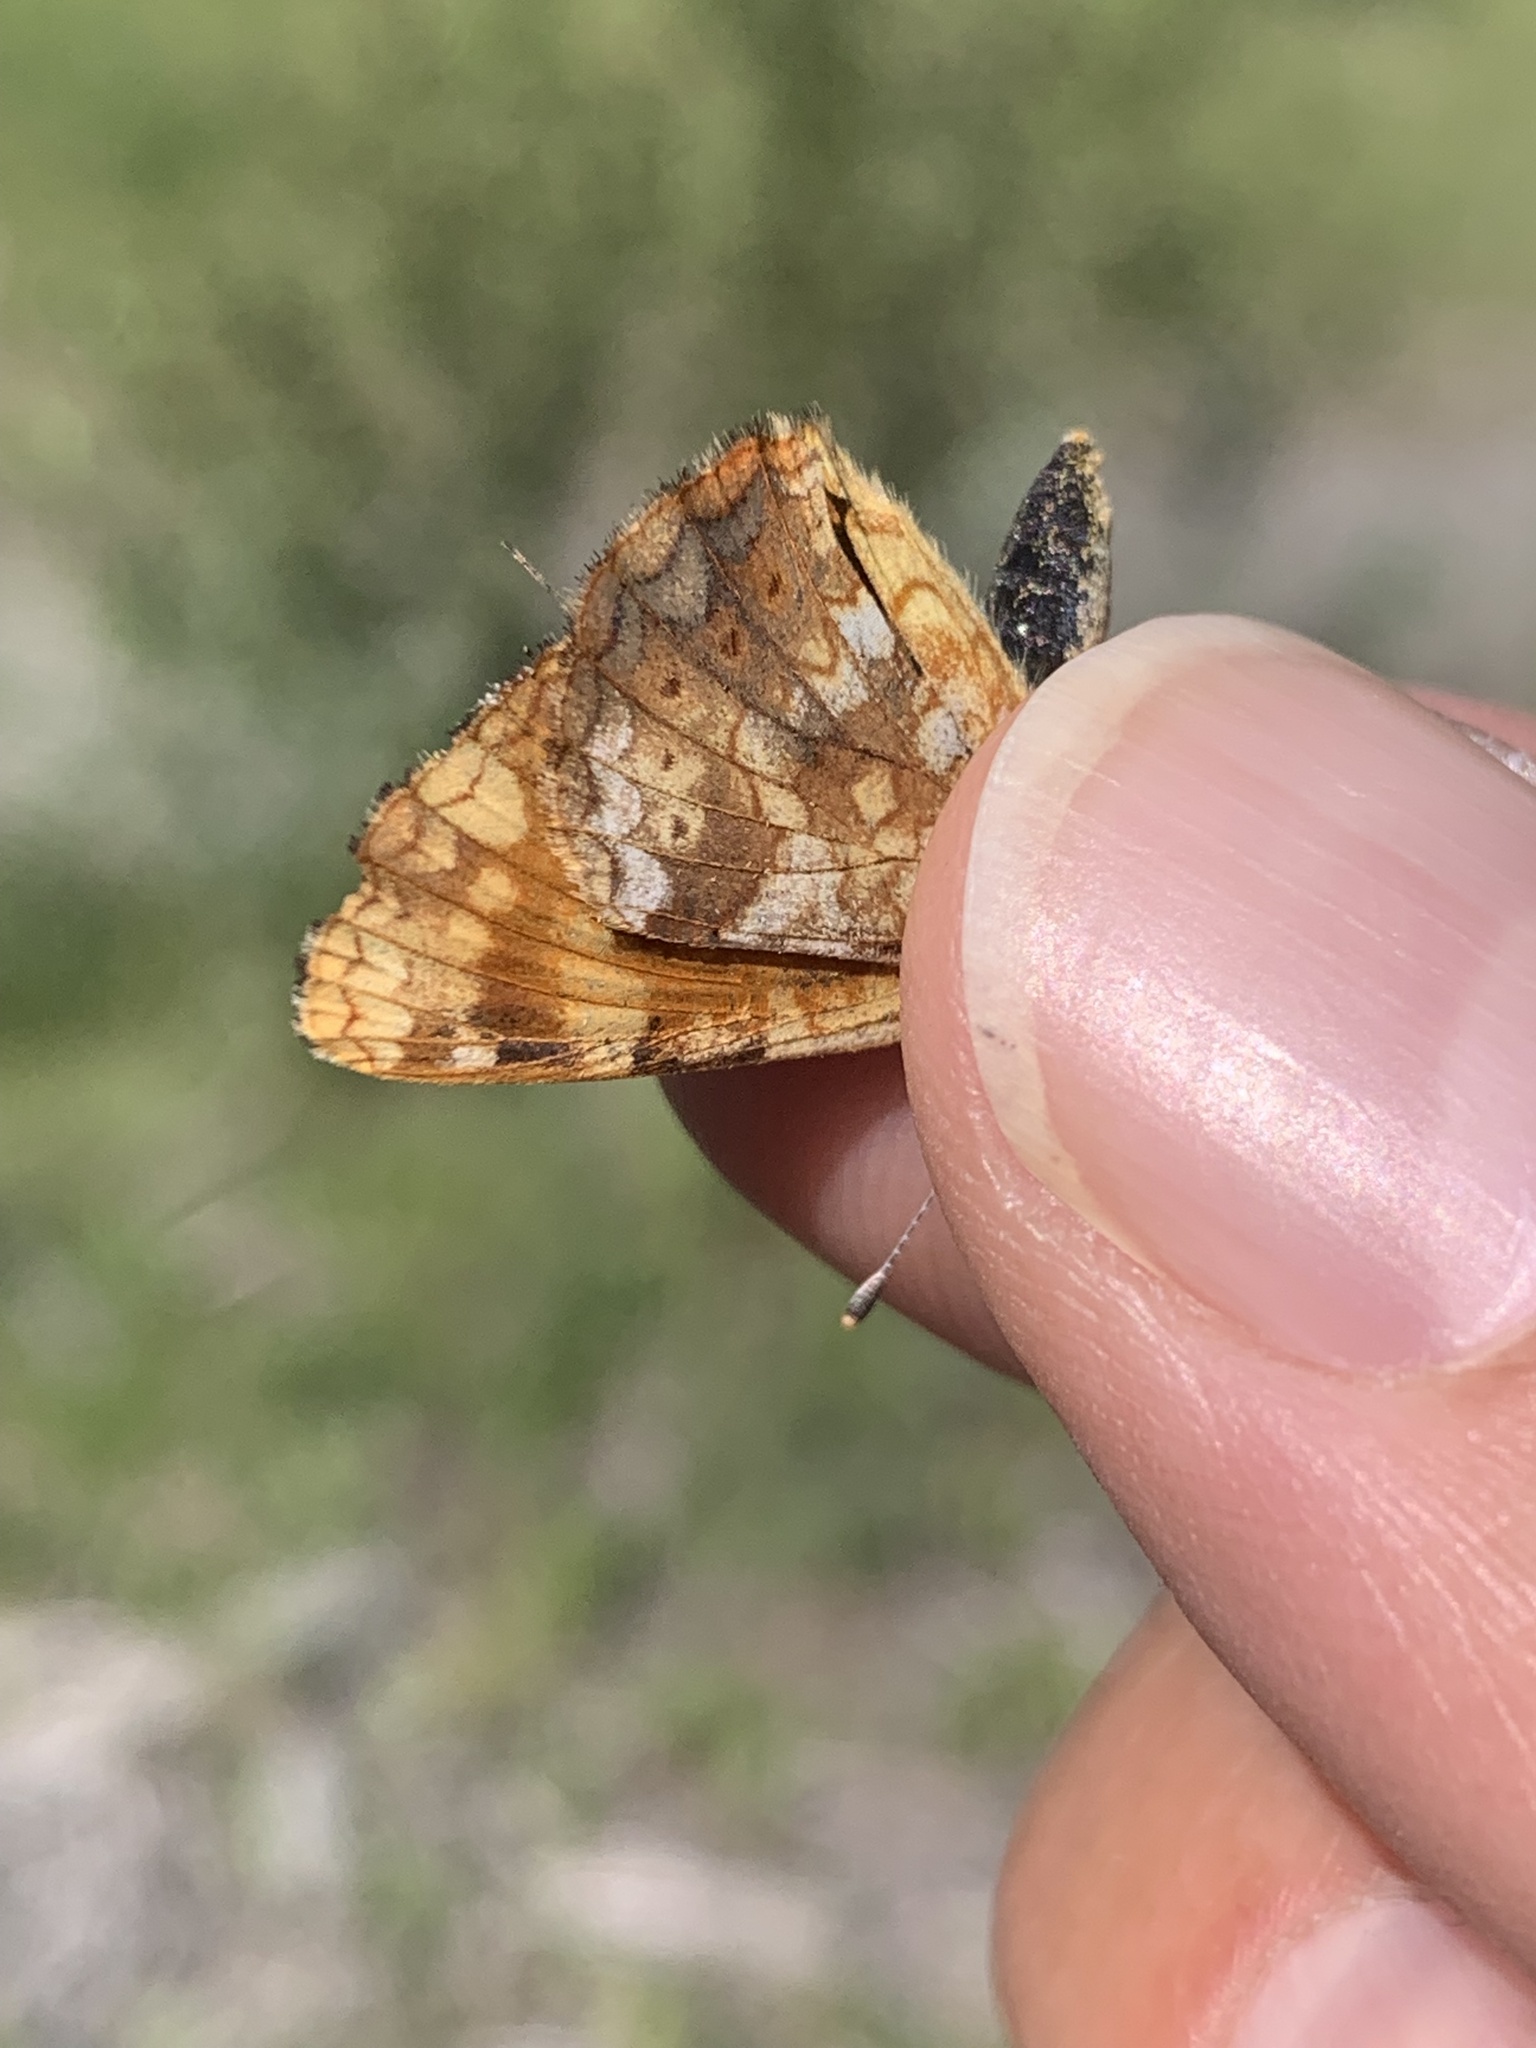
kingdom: Animalia
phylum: Arthropoda
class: Insecta
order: Lepidoptera
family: Nymphalidae
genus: Phyciodes
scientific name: Phyciodes tharos
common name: Pearl crescent
